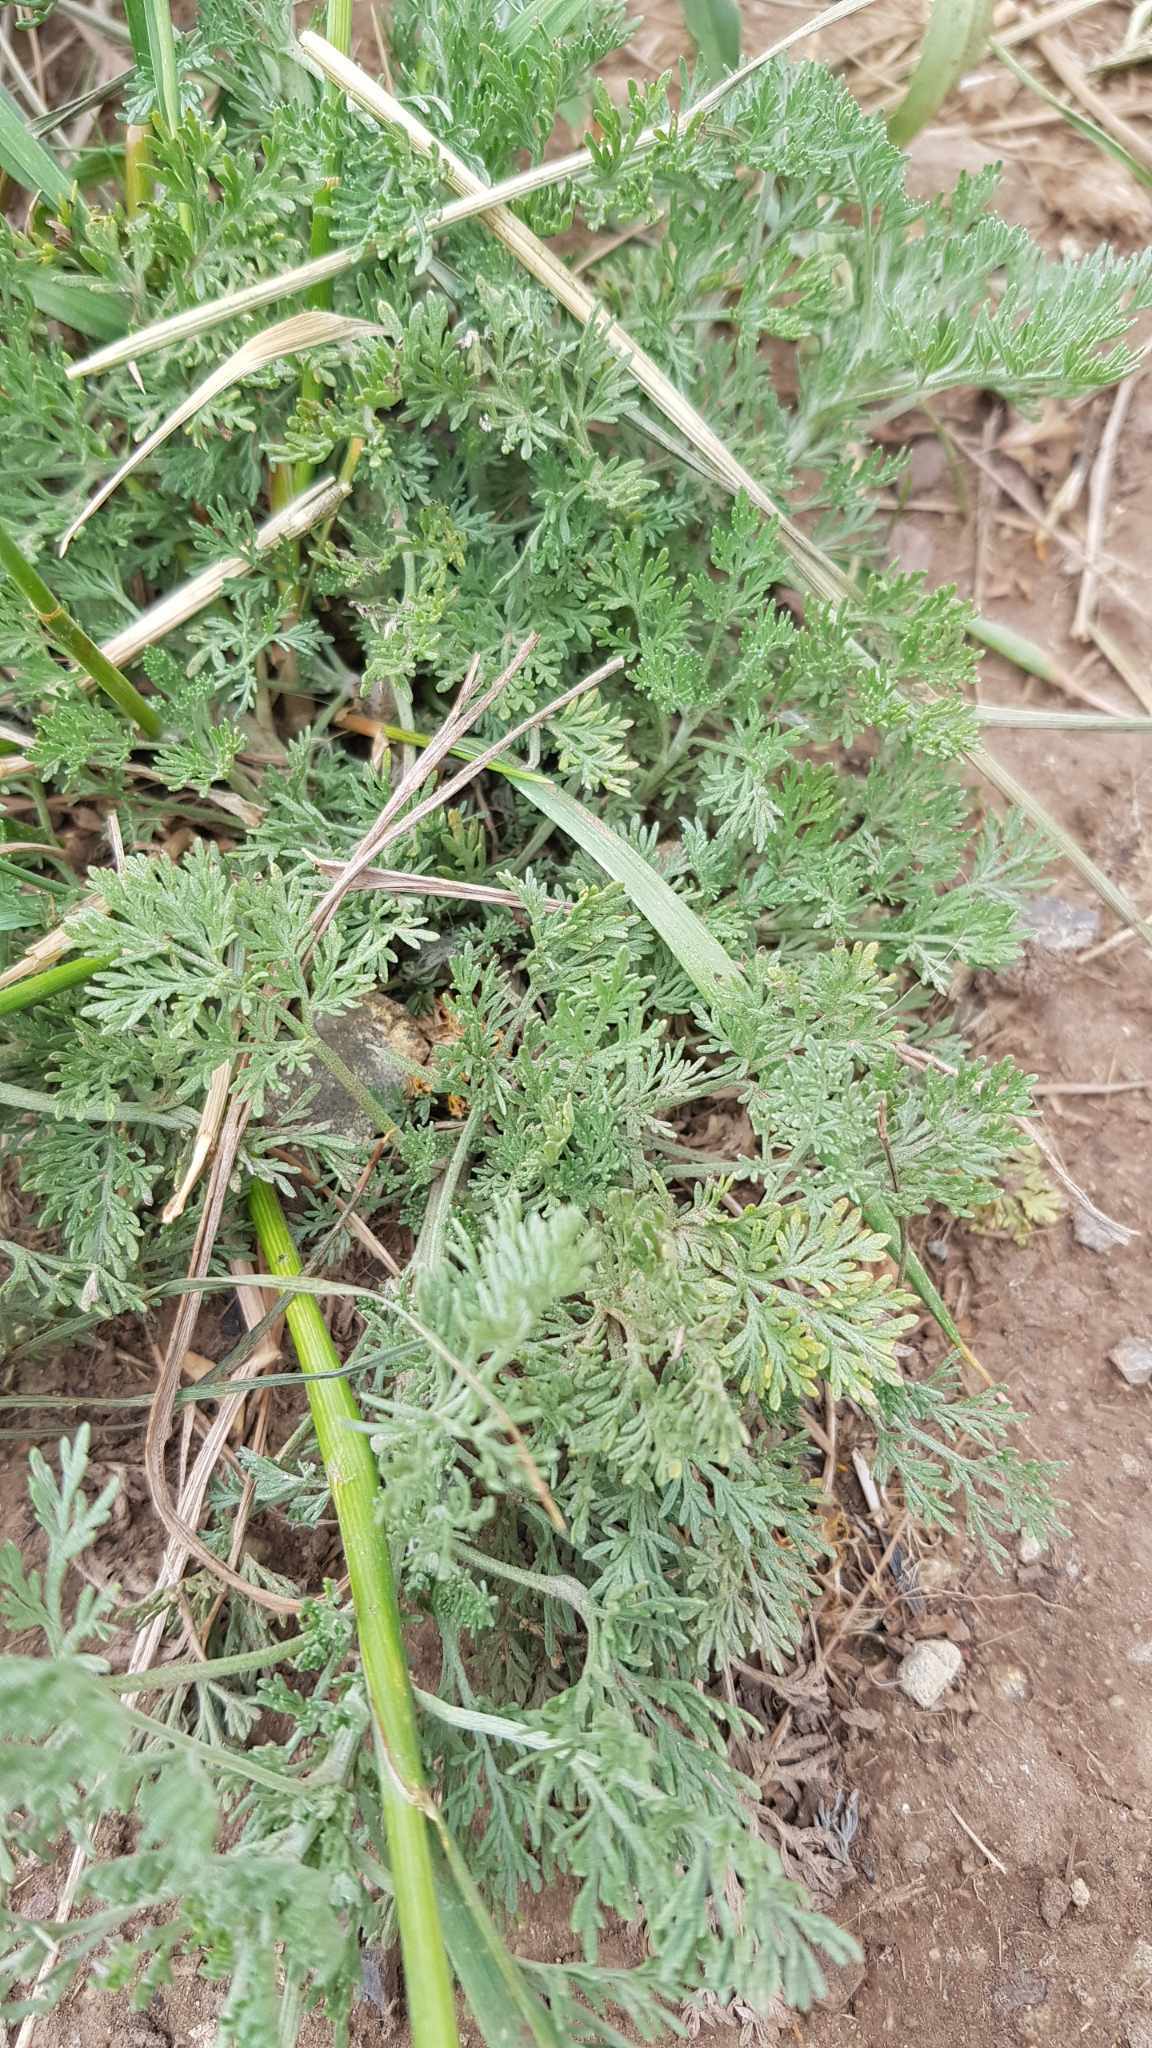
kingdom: Plantae
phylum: Tracheophyta
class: Magnoliopsida
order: Asterales
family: Asteraceae
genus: Artemisia
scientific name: Artemisia sieversiana
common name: Sieversian wormwood
